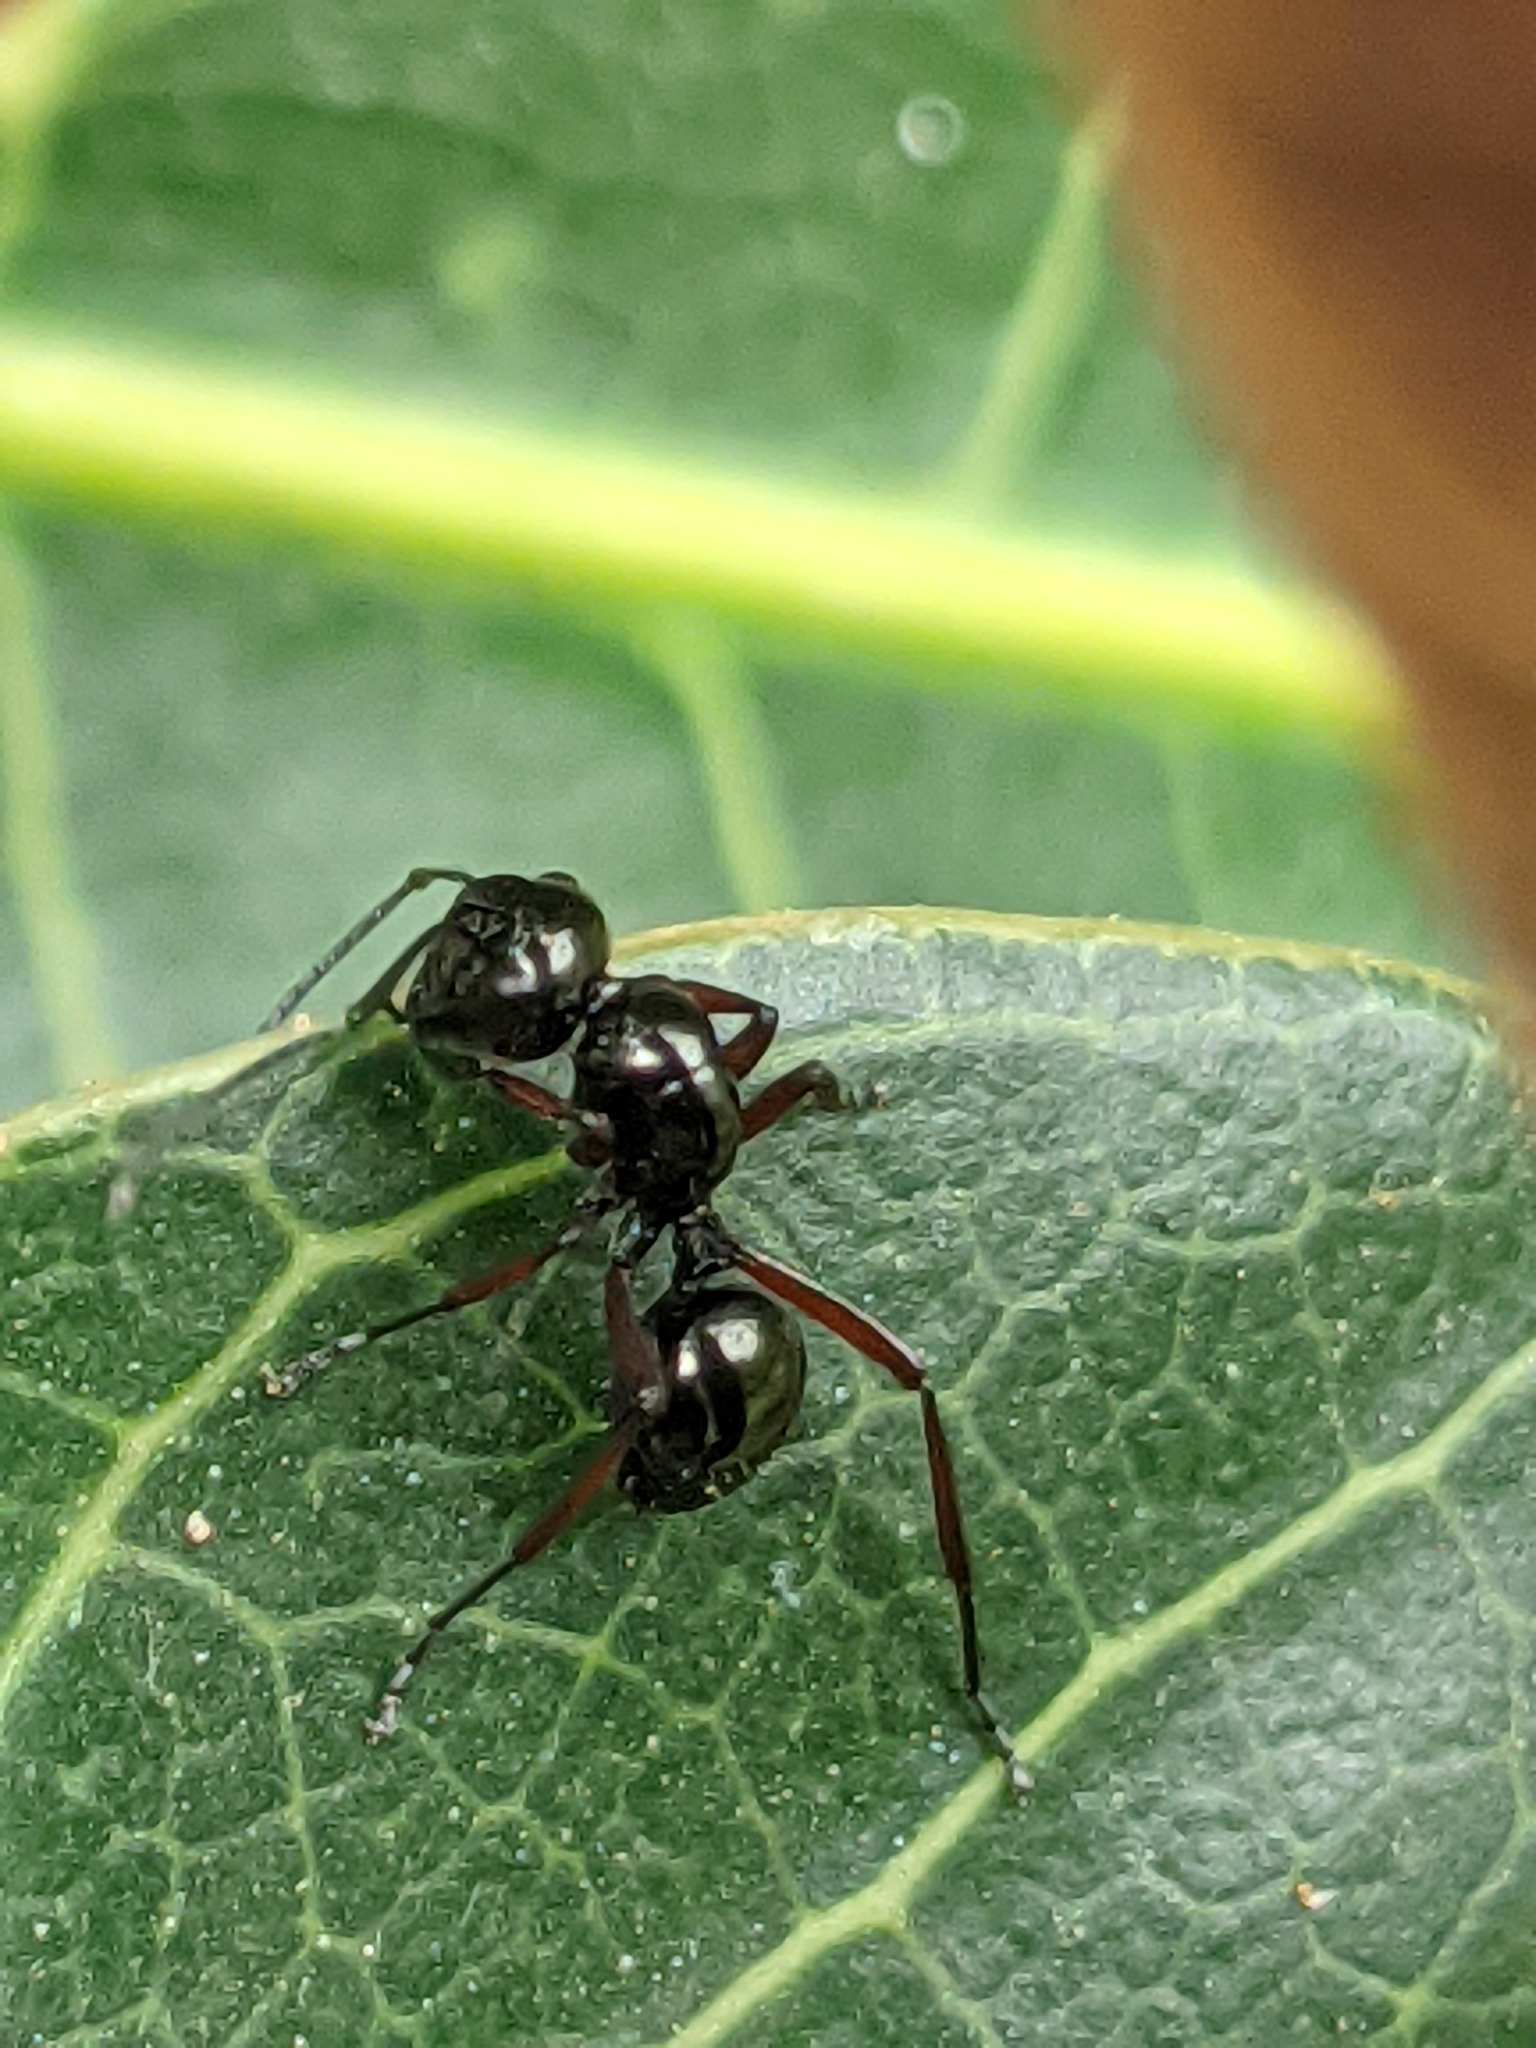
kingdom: Animalia
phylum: Arthropoda
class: Insecta
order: Hymenoptera
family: Formicidae
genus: Polyrhachis
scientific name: Polyrhachis rastellata
